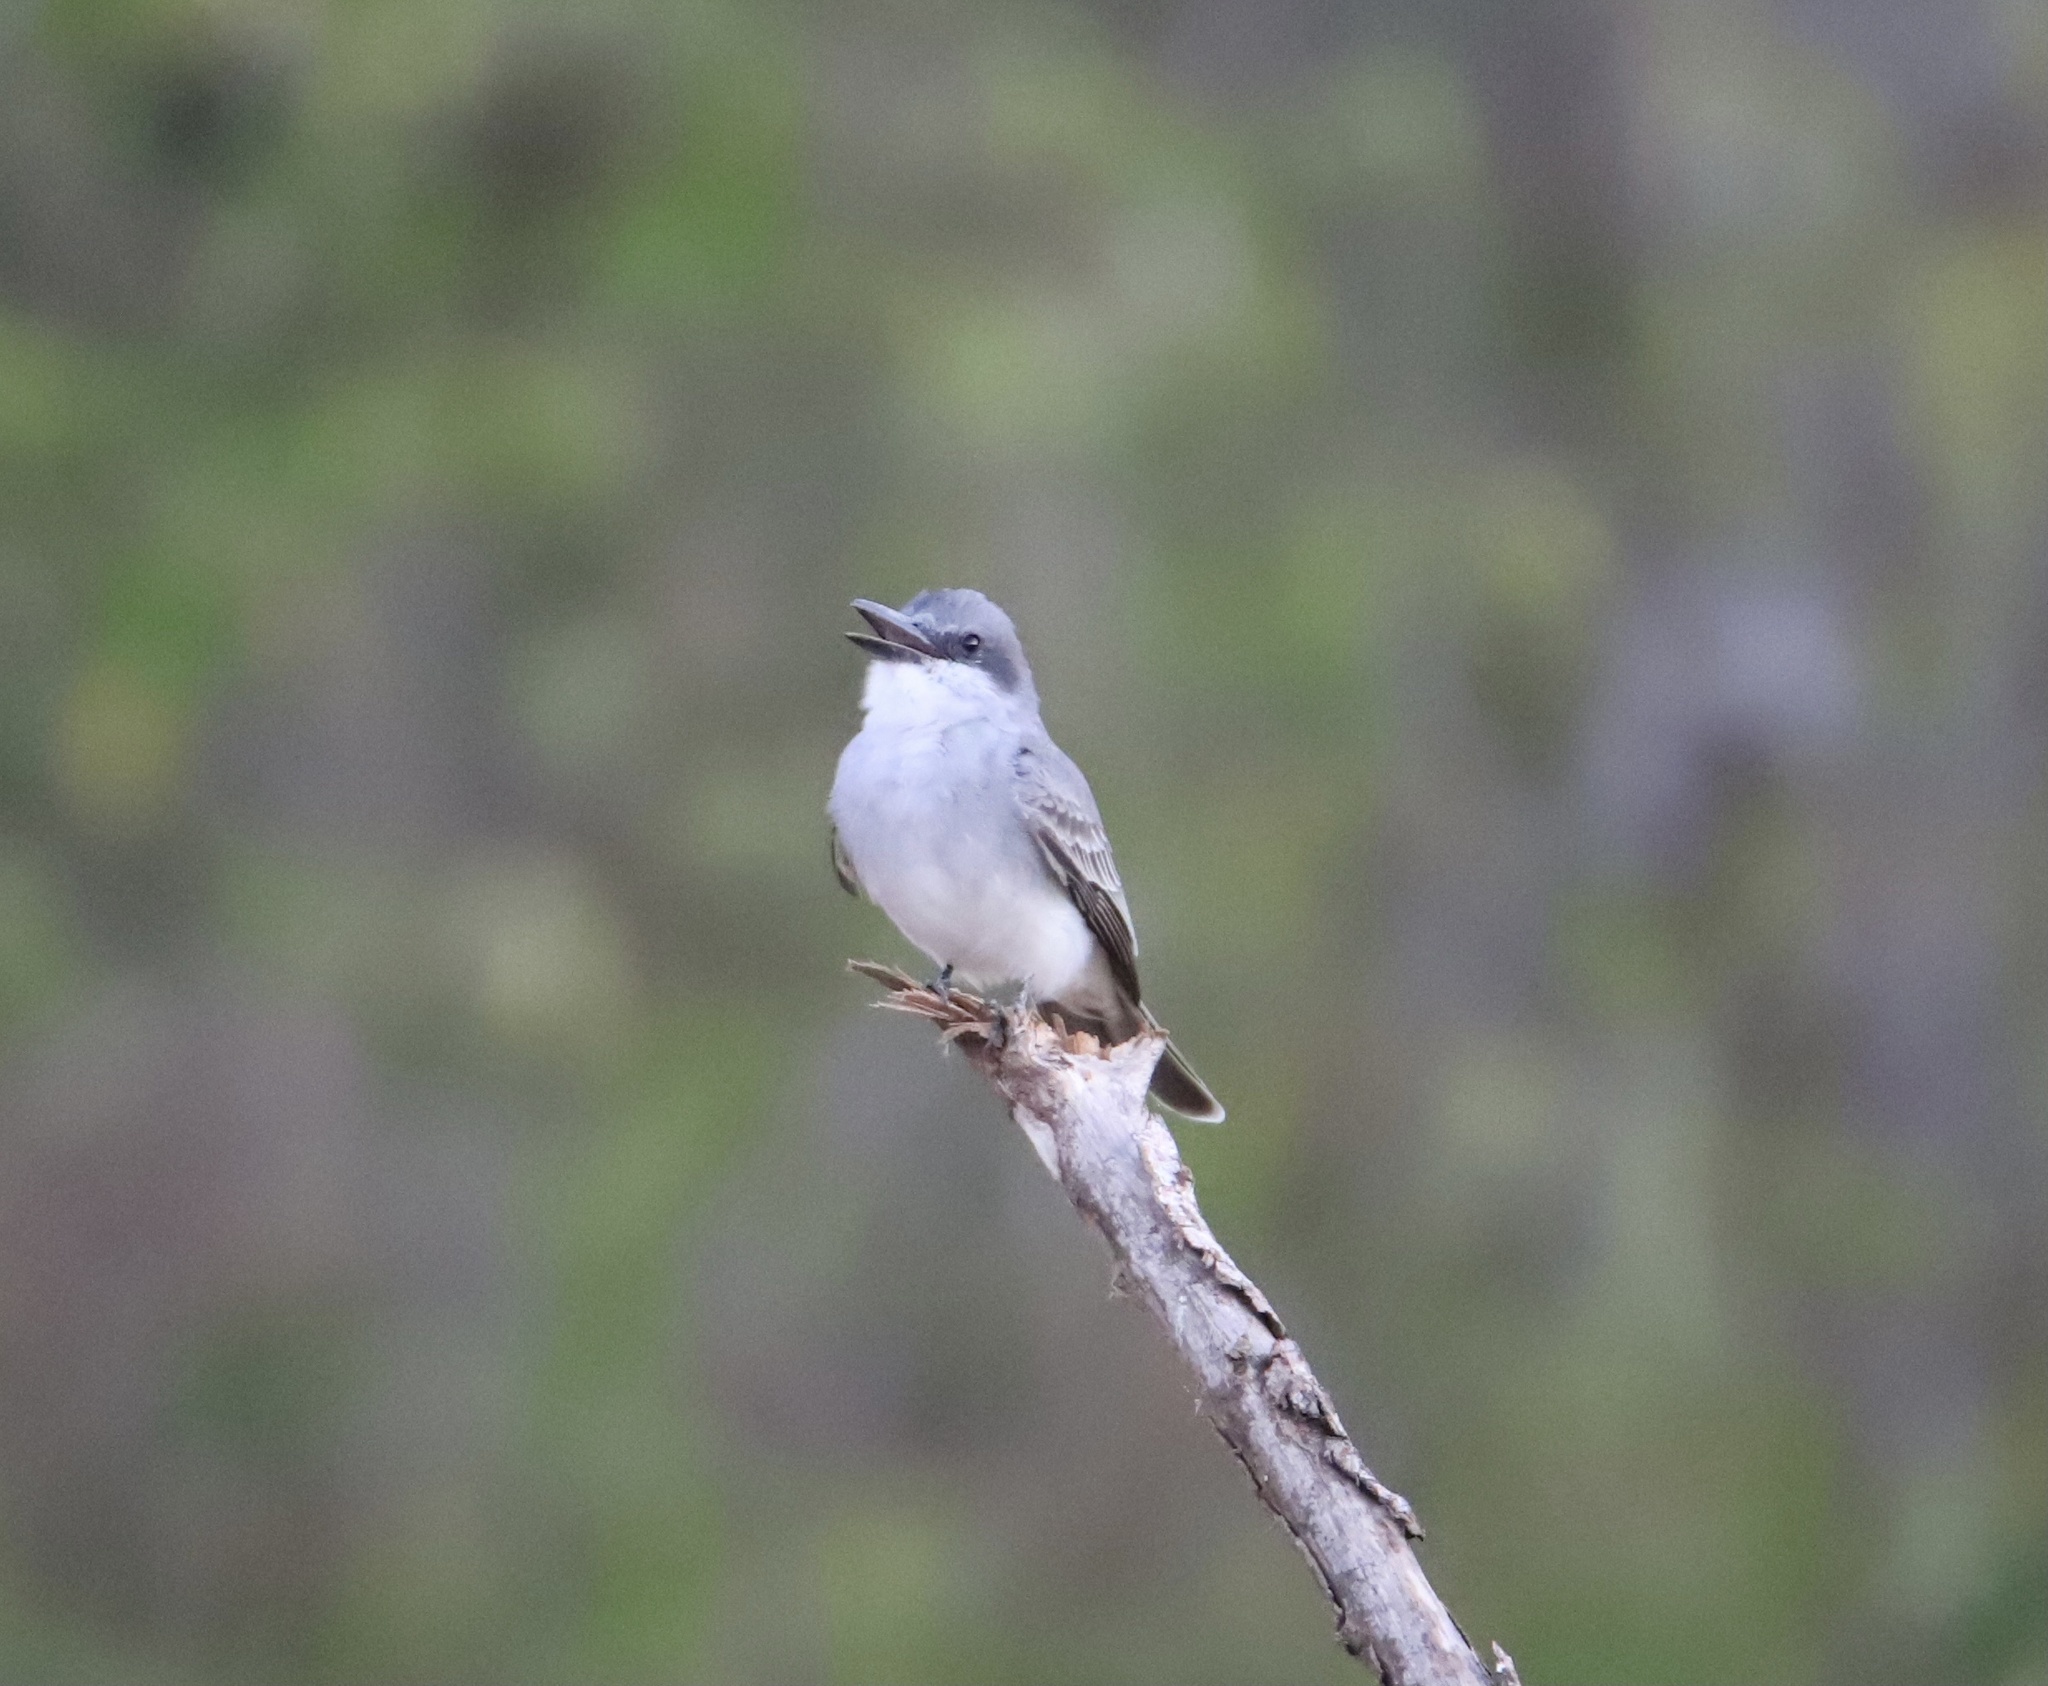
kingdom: Animalia
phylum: Chordata
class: Aves
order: Passeriformes
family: Tyrannidae
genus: Tyrannus
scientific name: Tyrannus dominicensis
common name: Gray kingbird
